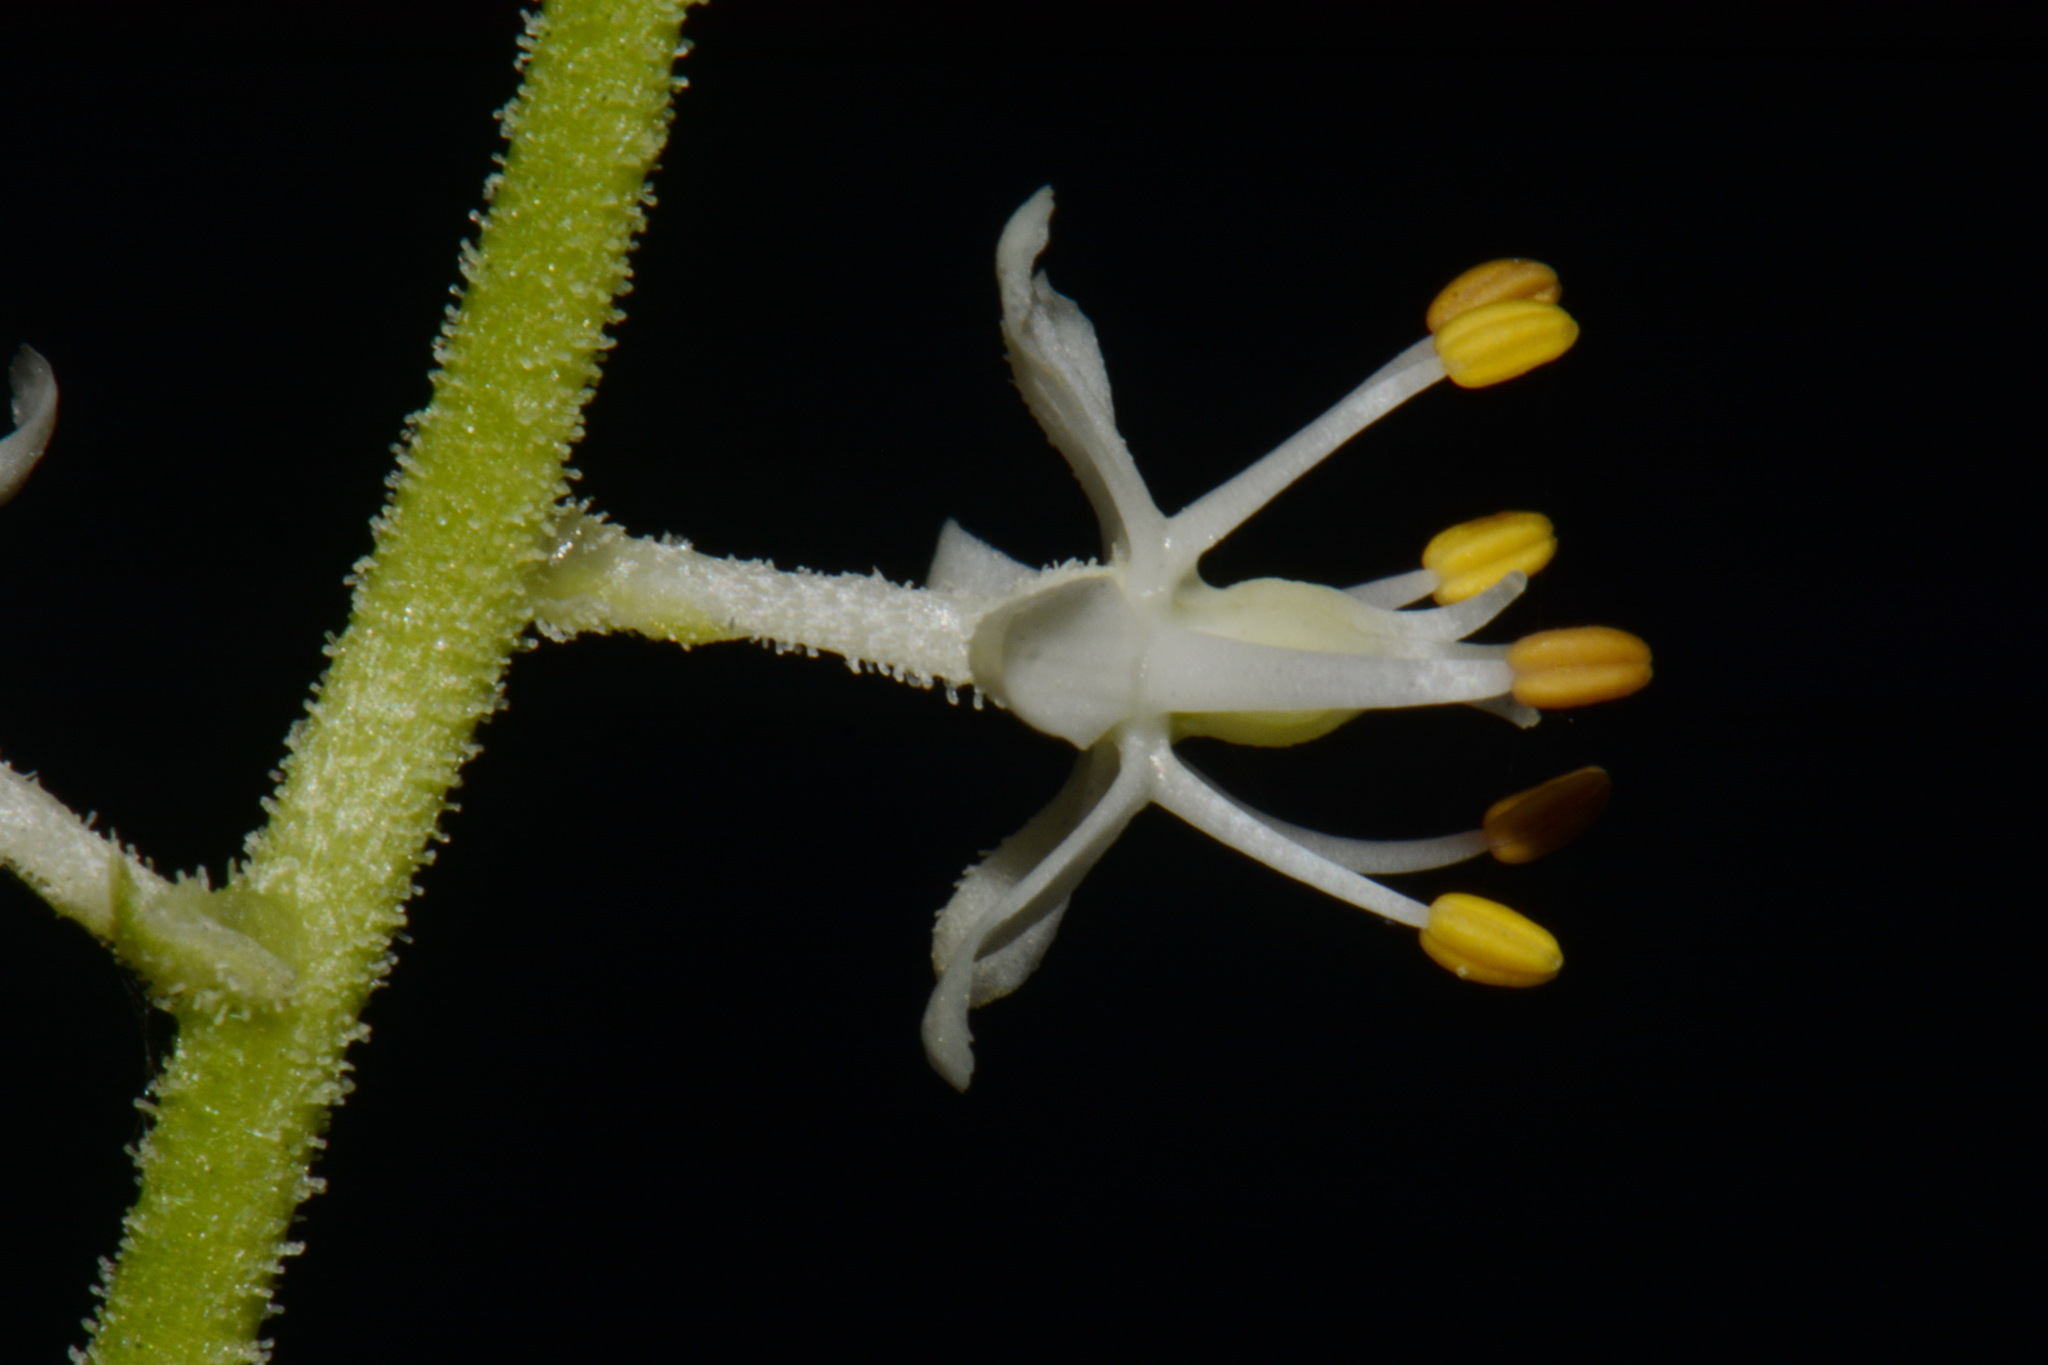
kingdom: Plantae
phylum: Tracheophyta
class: Liliopsida
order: Alismatales
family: Tofieldiaceae
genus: Triantha
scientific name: Triantha racemosa
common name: Coastal false asphodel
